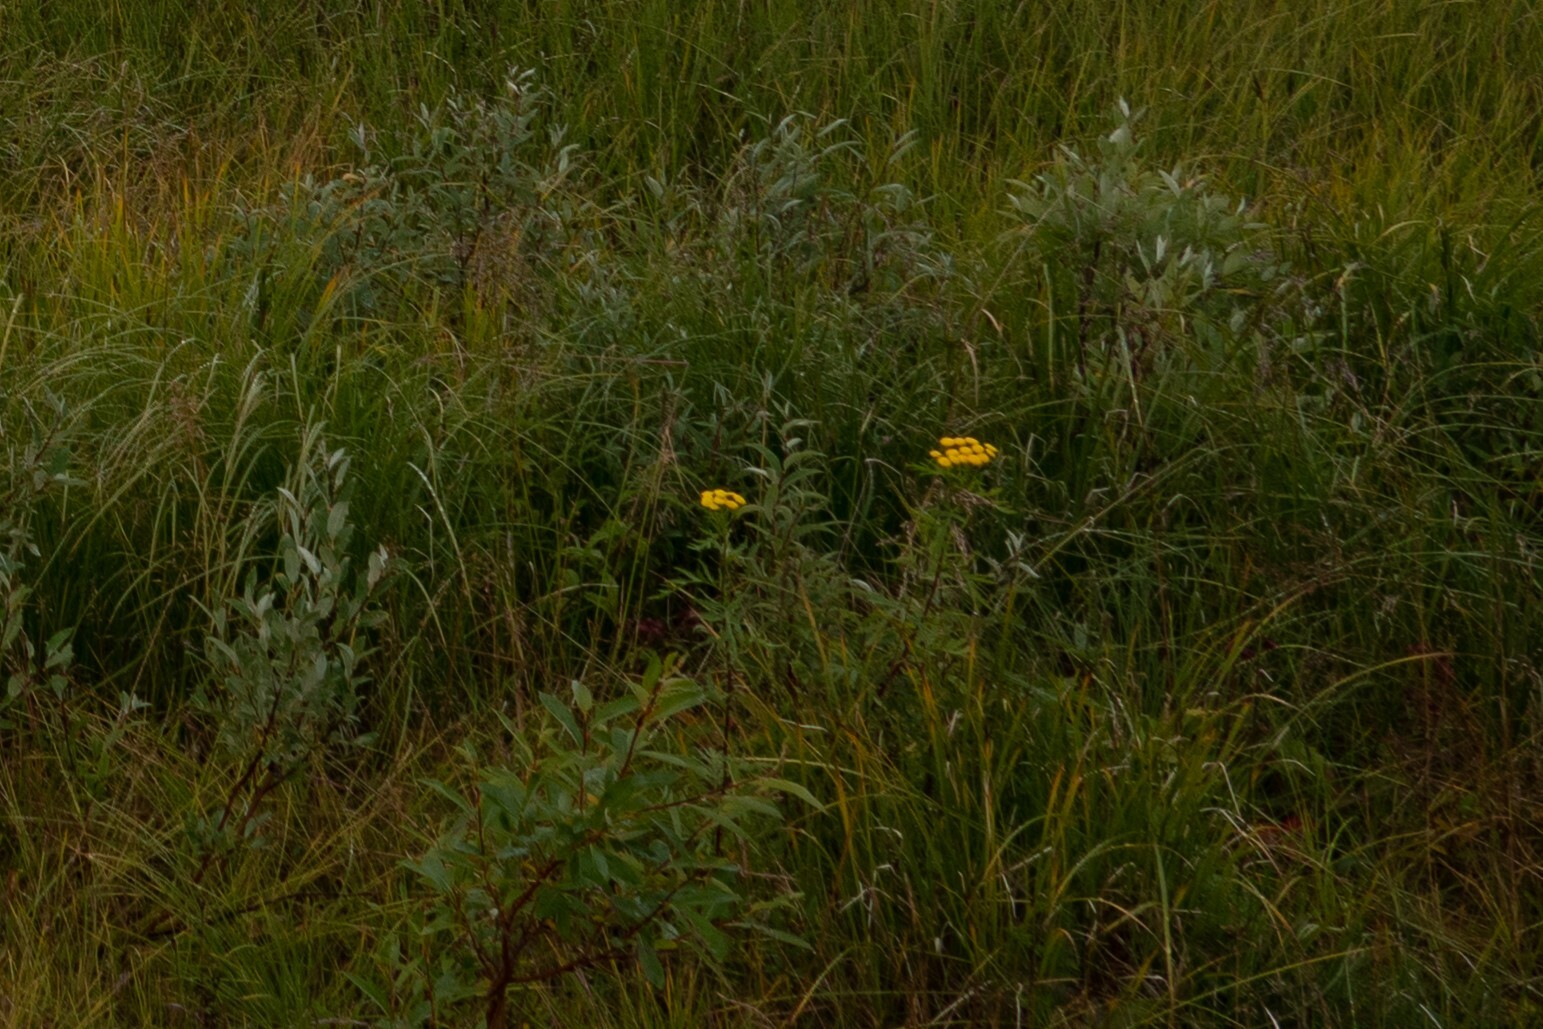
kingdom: Plantae
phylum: Tracheophyta
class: Magnoliopsida
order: Asterales
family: Asteraceae
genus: Tanacetum
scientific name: Tanacetum vulgare
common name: Common tansy
